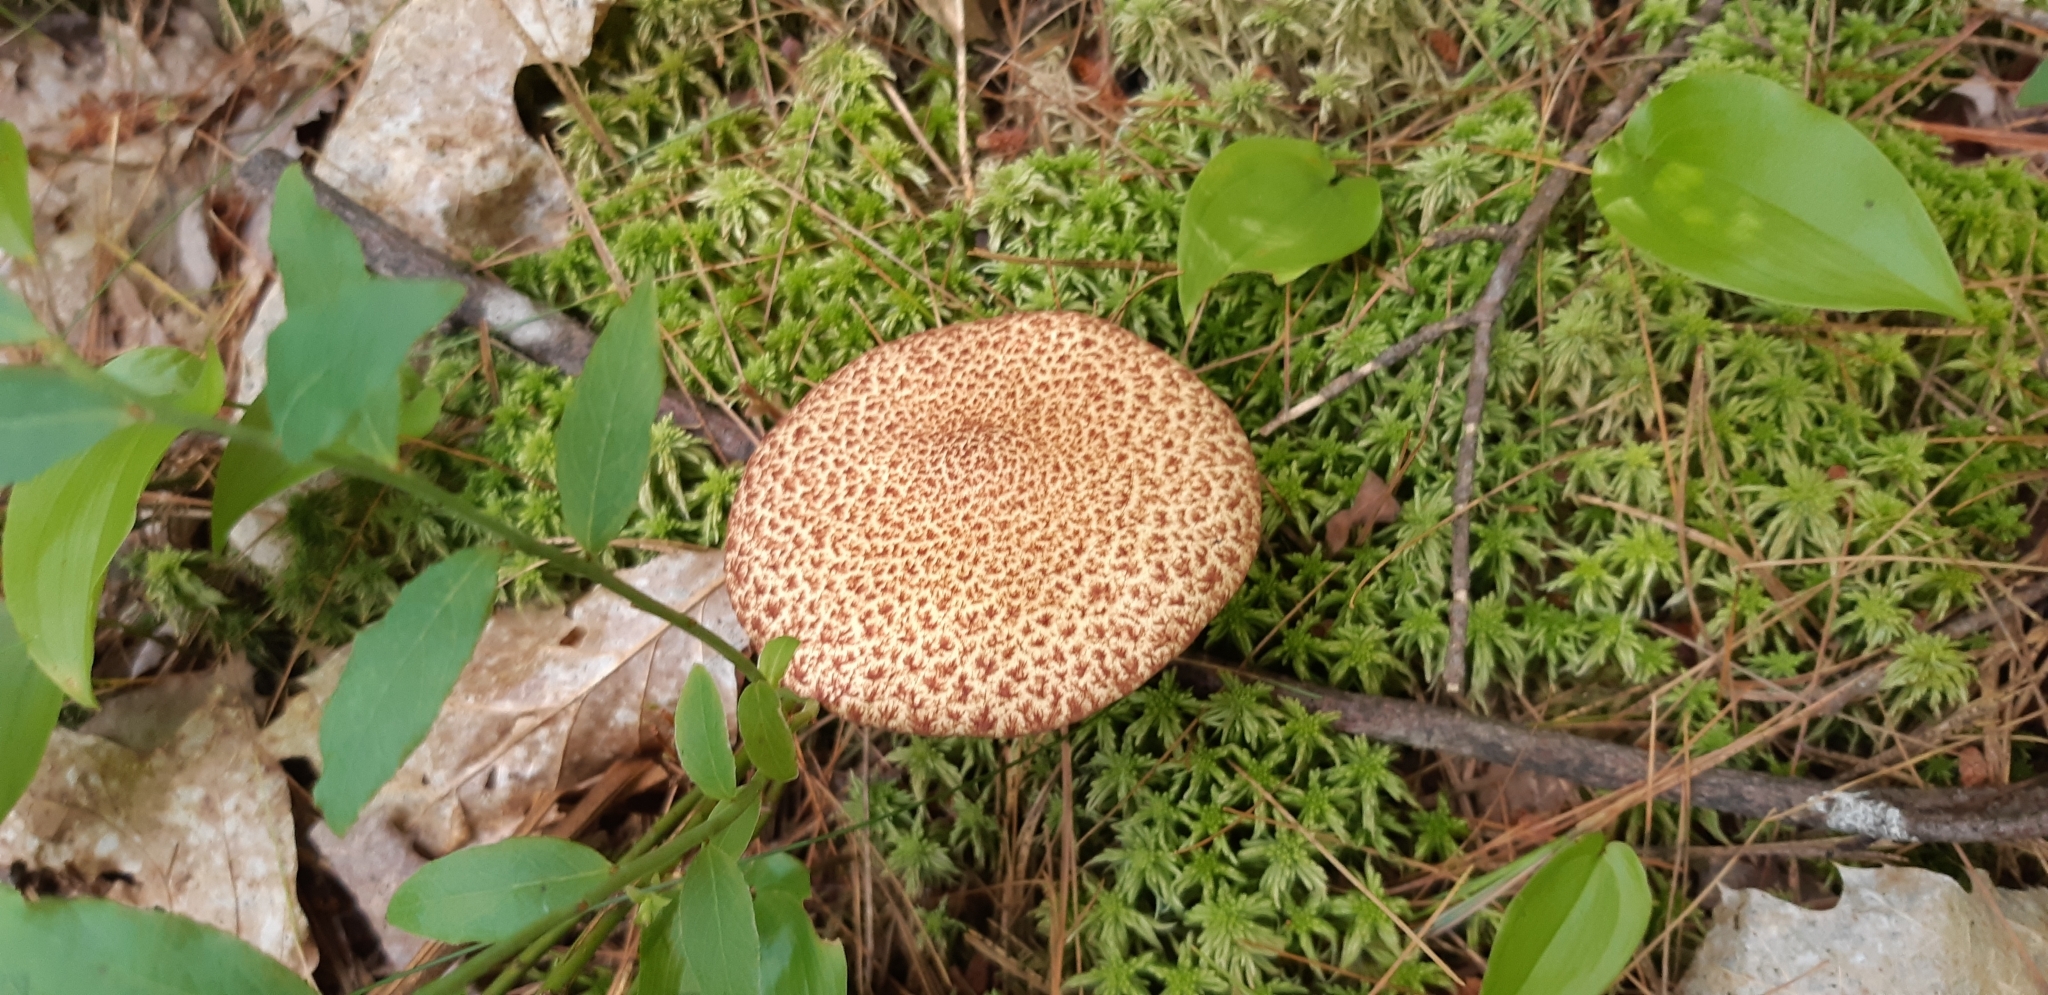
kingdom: Fungi
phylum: Basidiomycota
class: Agaricomycetes
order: Boletales
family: Suillaceae
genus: Suillus
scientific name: Suillus spraguei
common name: Painted suillus
